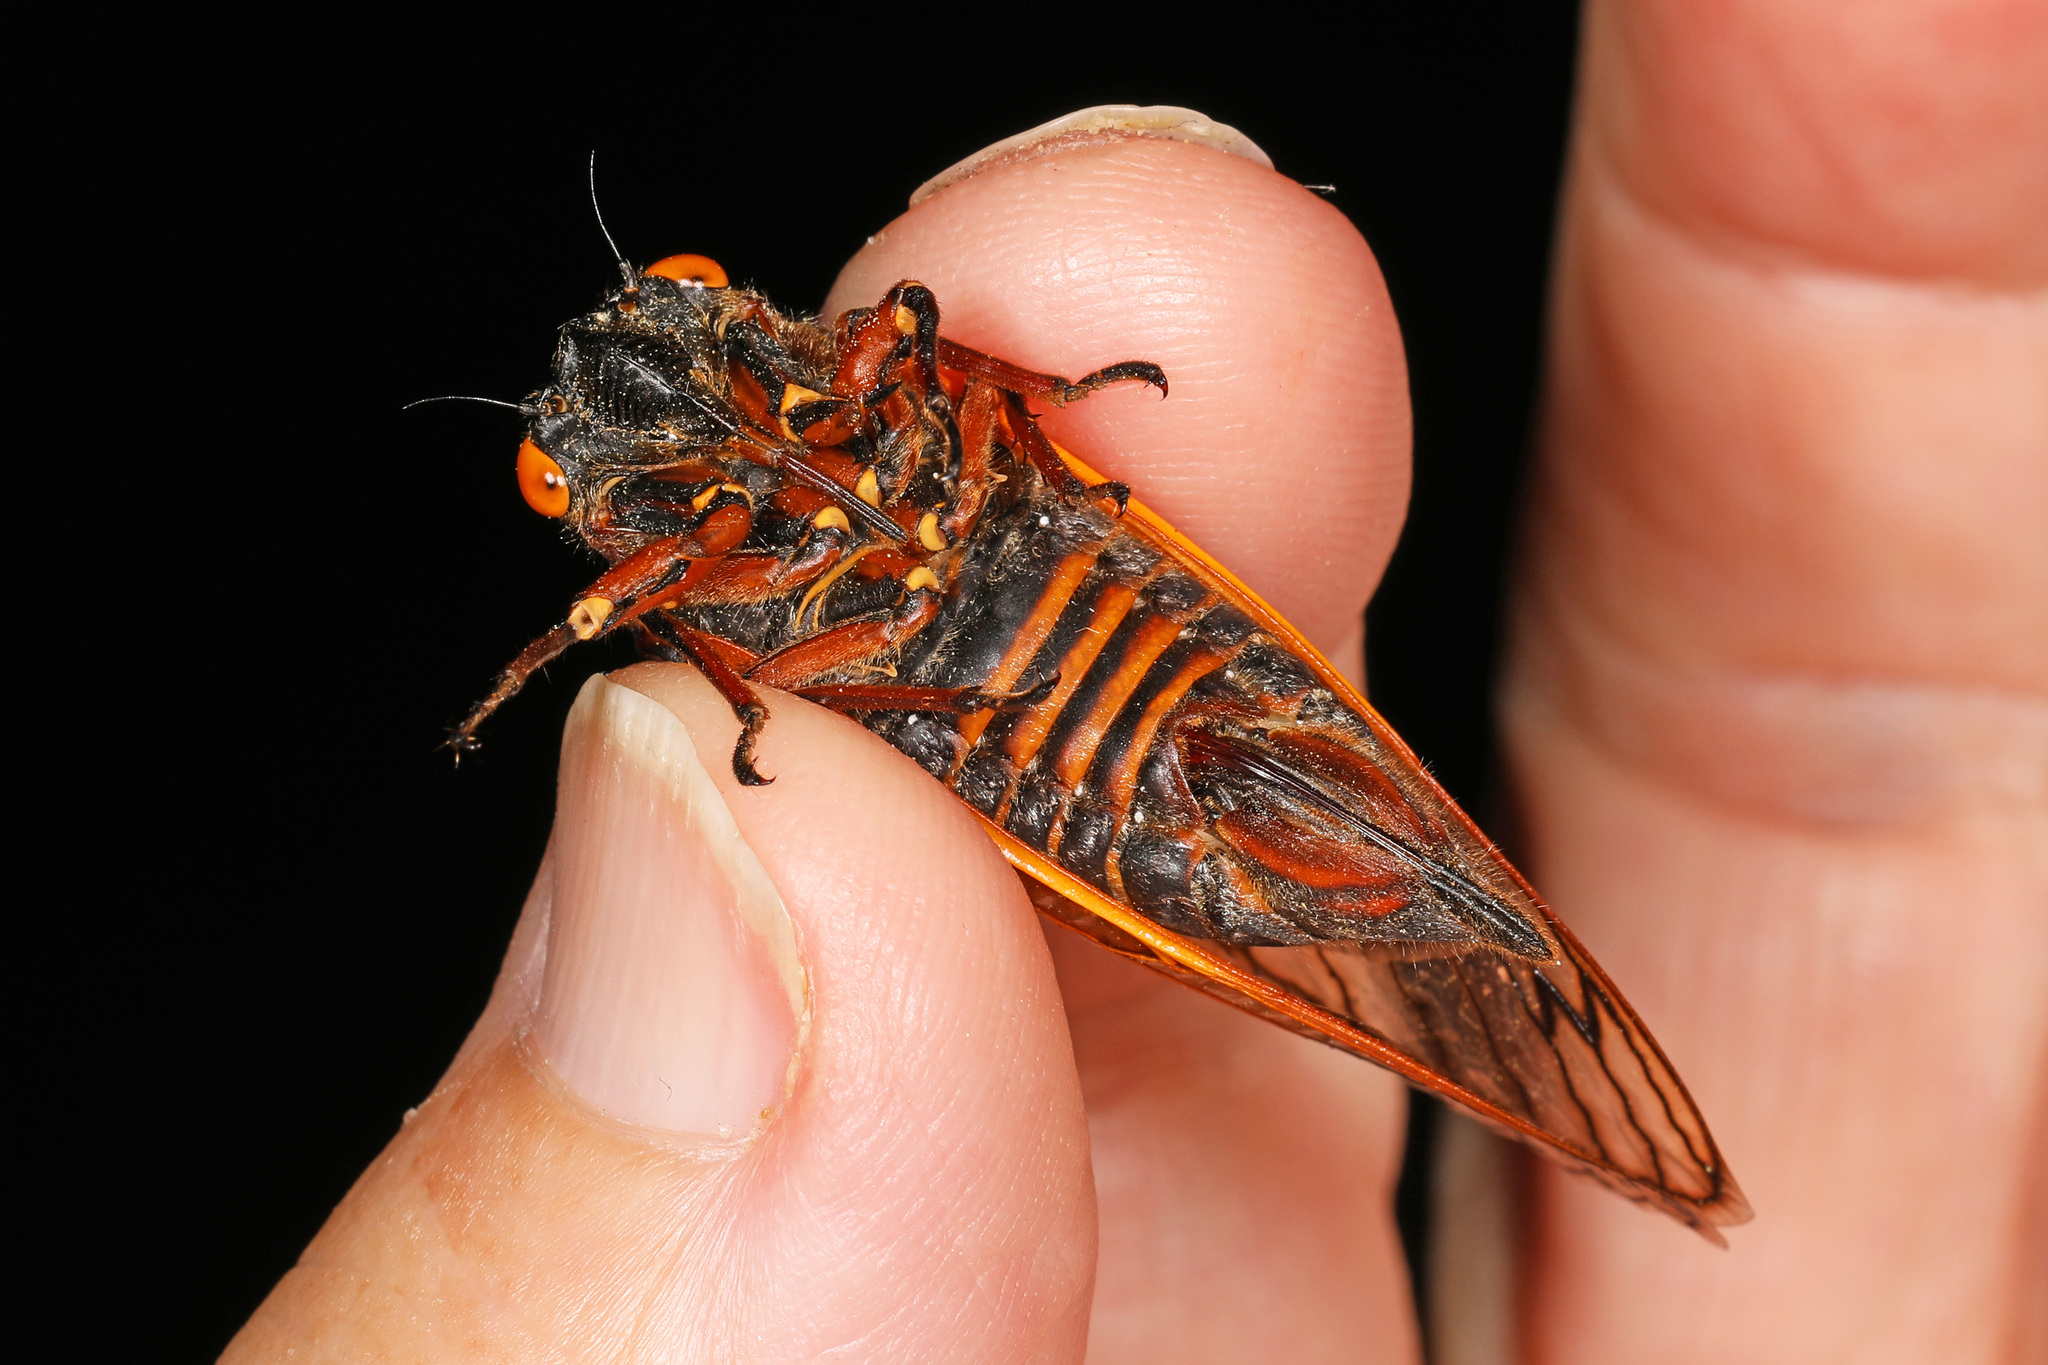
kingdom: Animalia
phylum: Arthropoda
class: Insecta
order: Hemiptera
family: Cicadidae
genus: Magicicada
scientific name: Magicicada septendecim
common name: Periodical cicada
